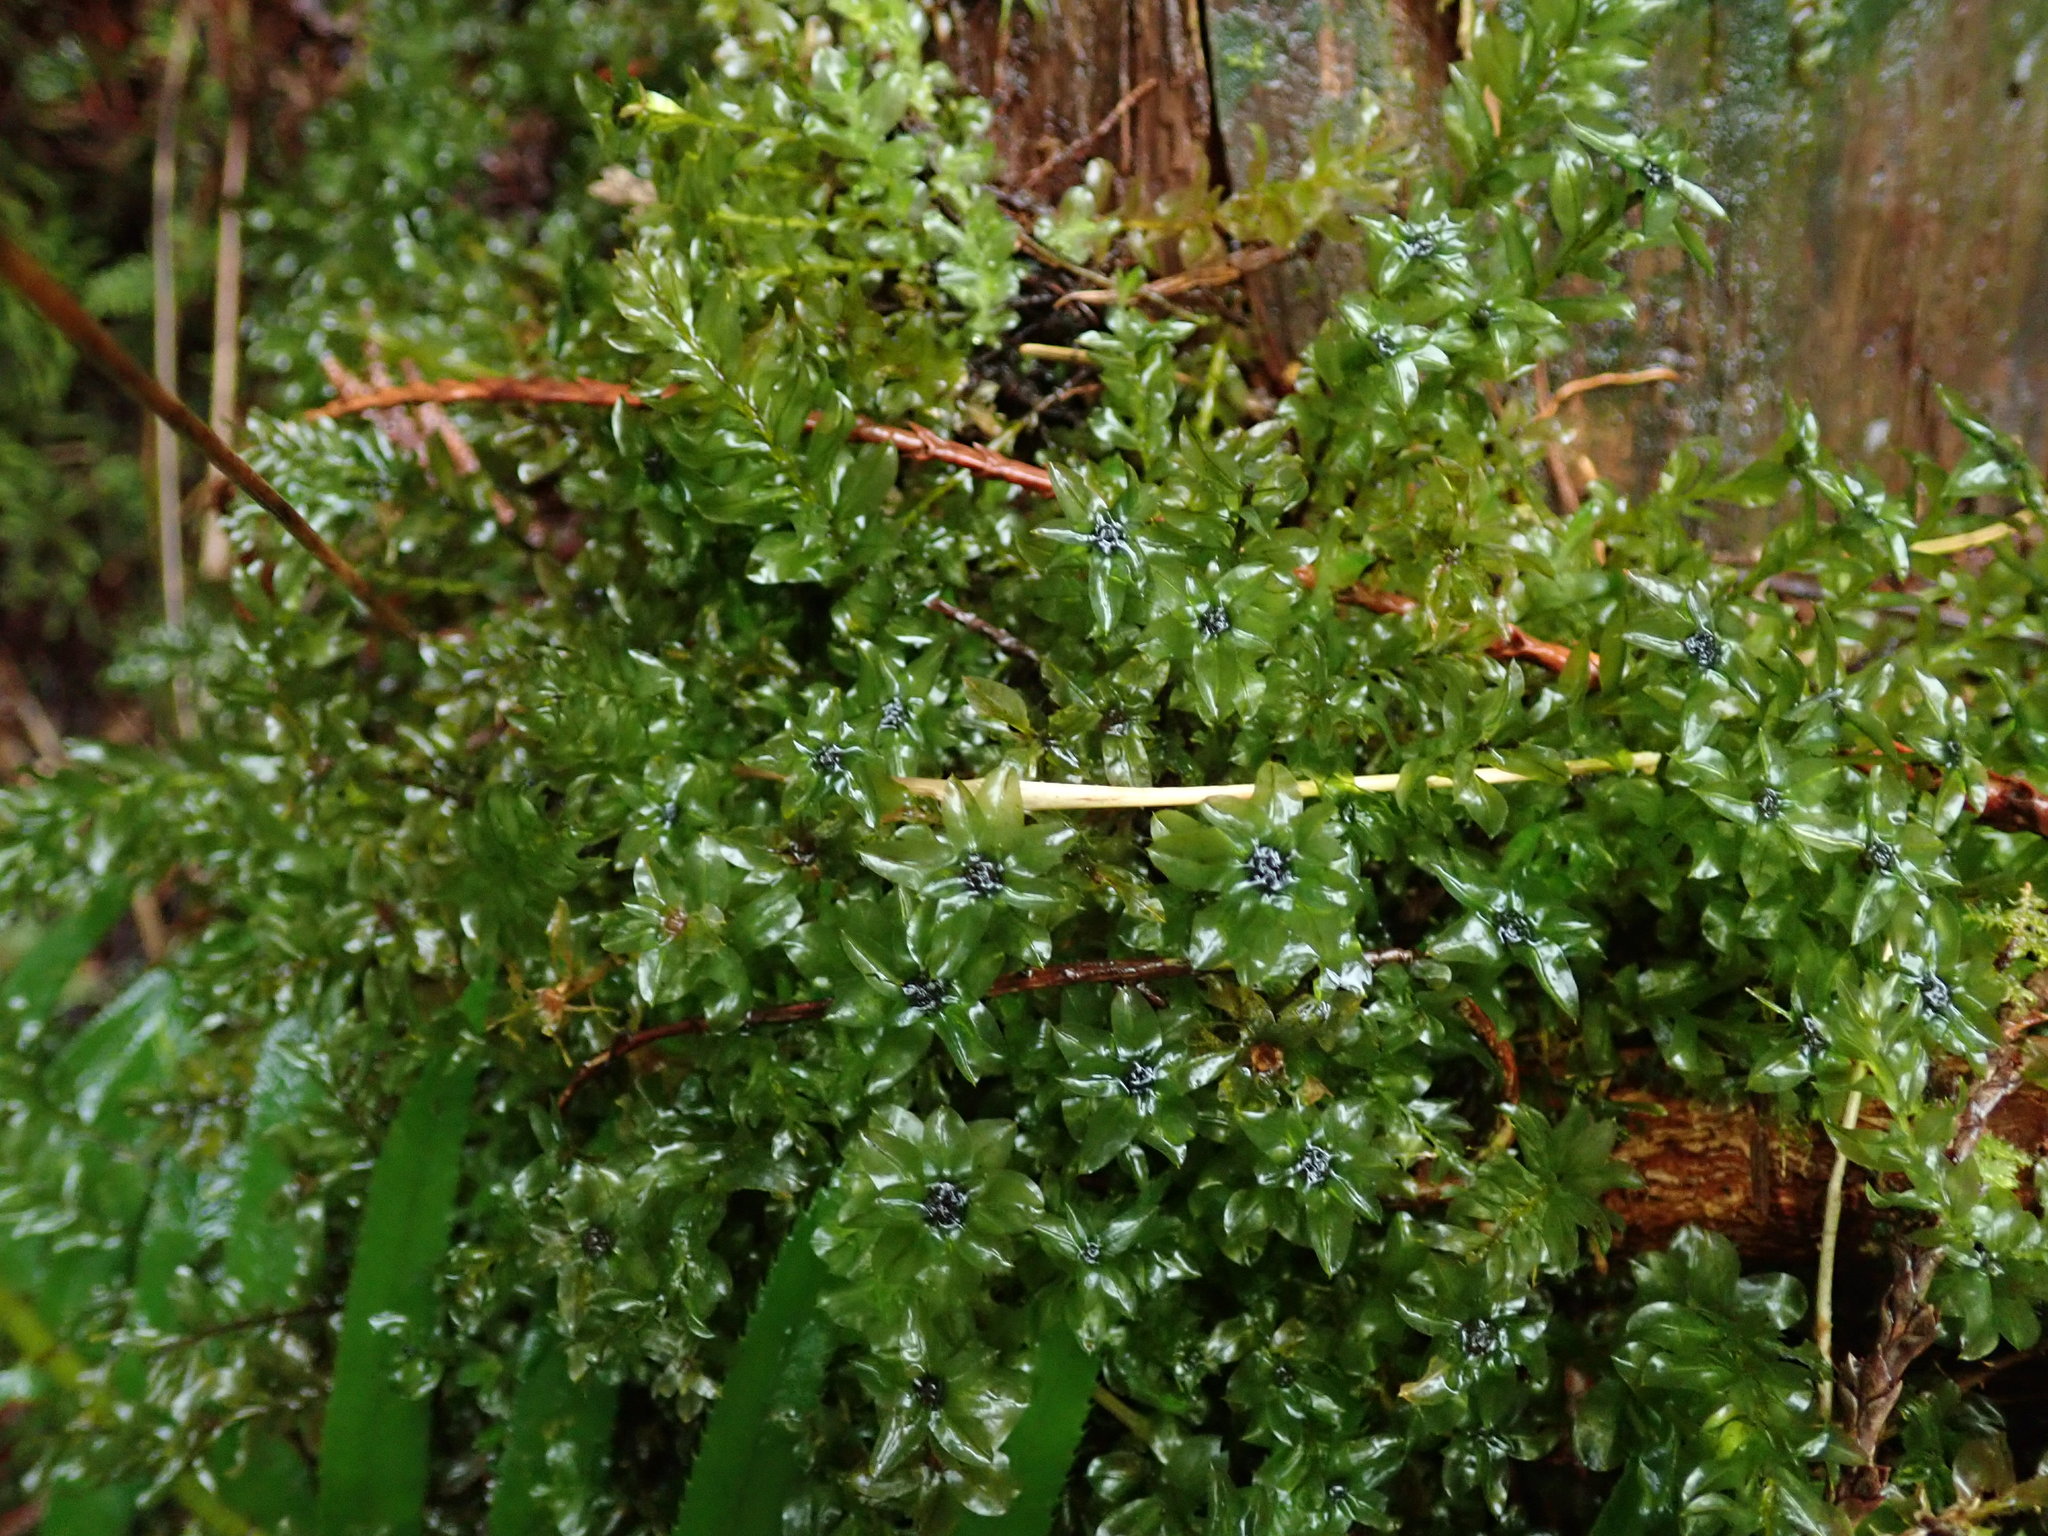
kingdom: Plantae
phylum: Bryophyta
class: Bryopsida
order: Bryales
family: Mniaceae
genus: Plagiomnium
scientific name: Plagiomnium insigne
